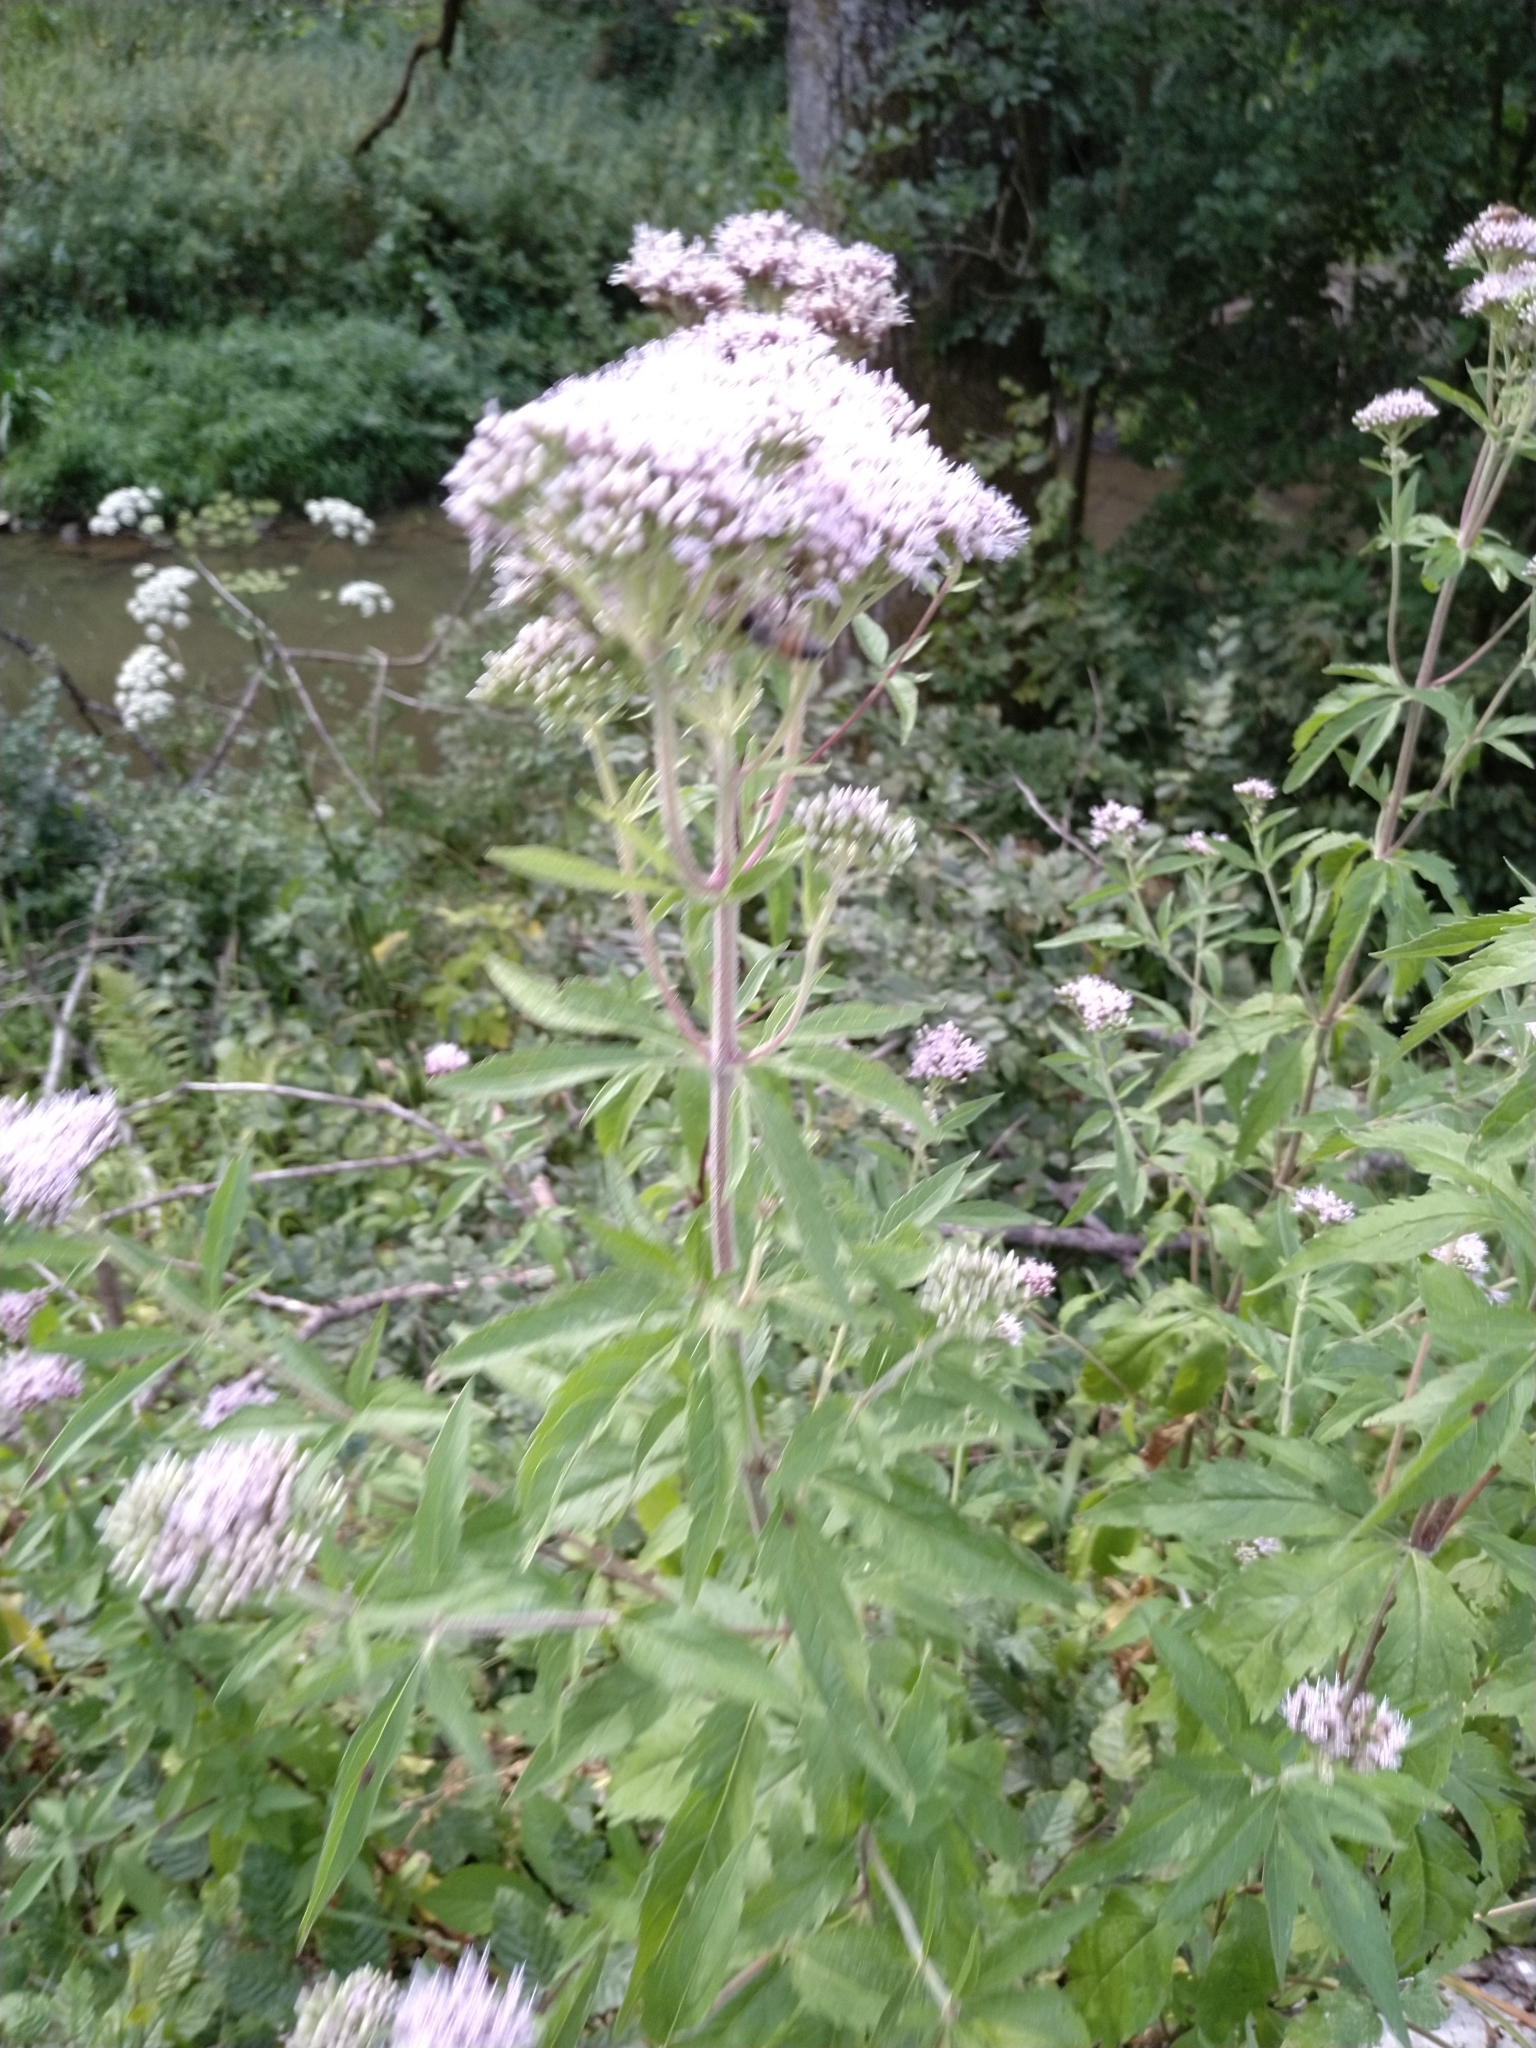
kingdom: Plantae
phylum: Tracheophyta
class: Magnoliopsida
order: Asterales
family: Asteraceae
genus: Eupatorium
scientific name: Eupatorium cannabinum
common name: Hemp-agrimony
